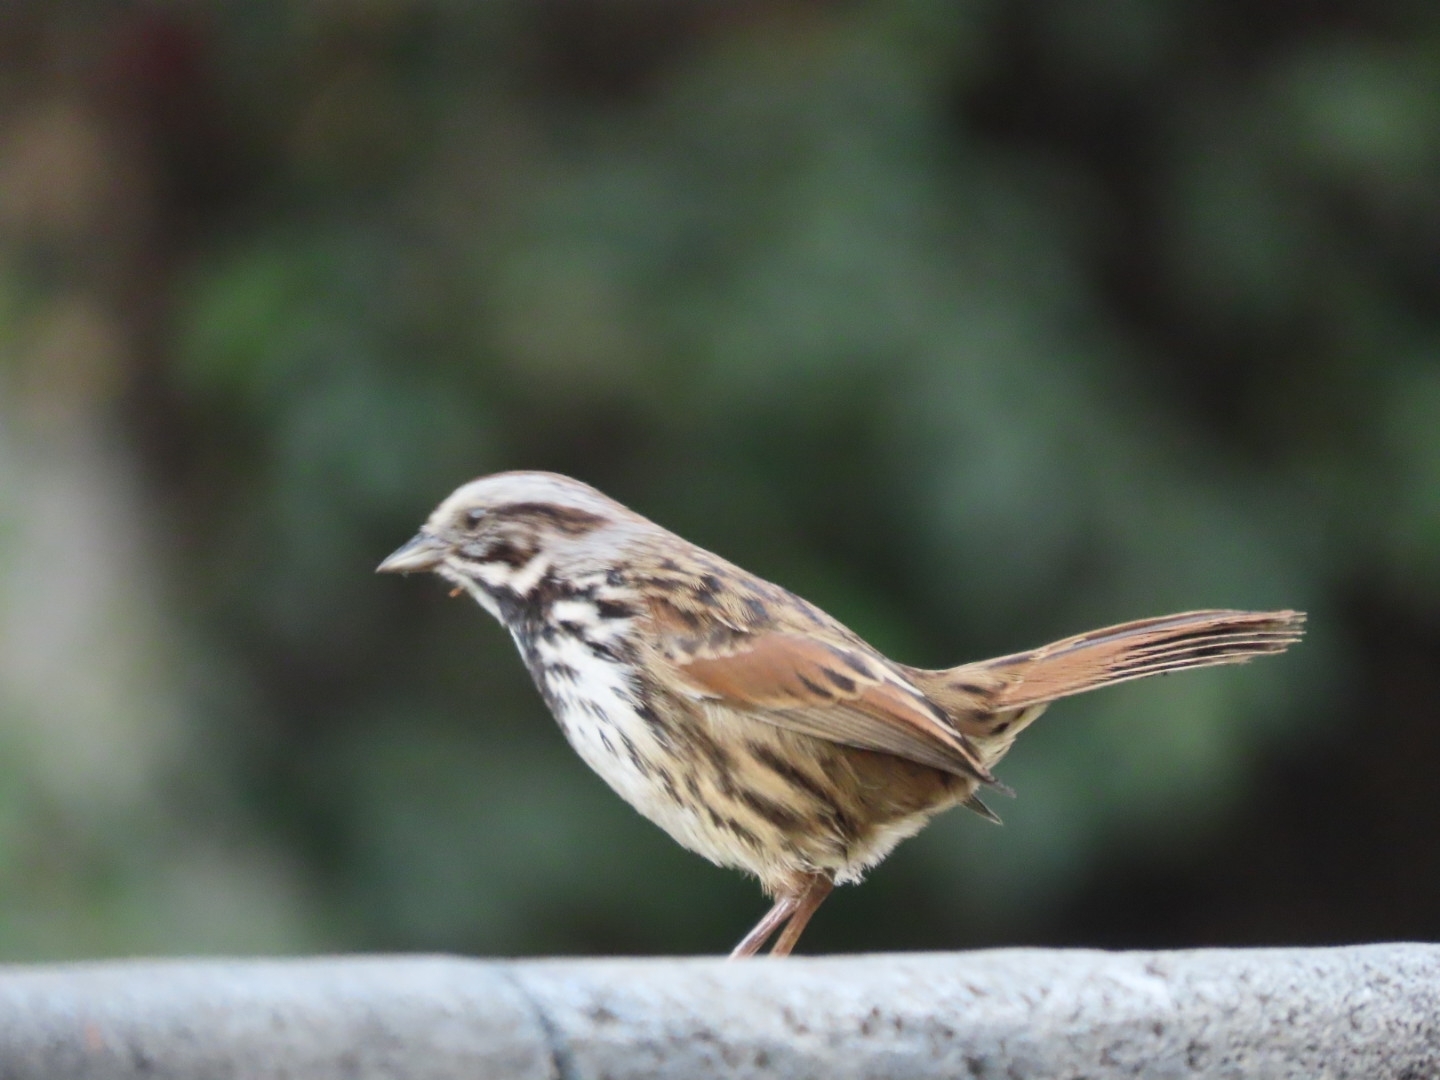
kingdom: Animalia
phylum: Chordata
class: Aves
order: Passeriformes
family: Passerellidae
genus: Melospiza
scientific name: Melospiza melodia
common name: Song sparrow
